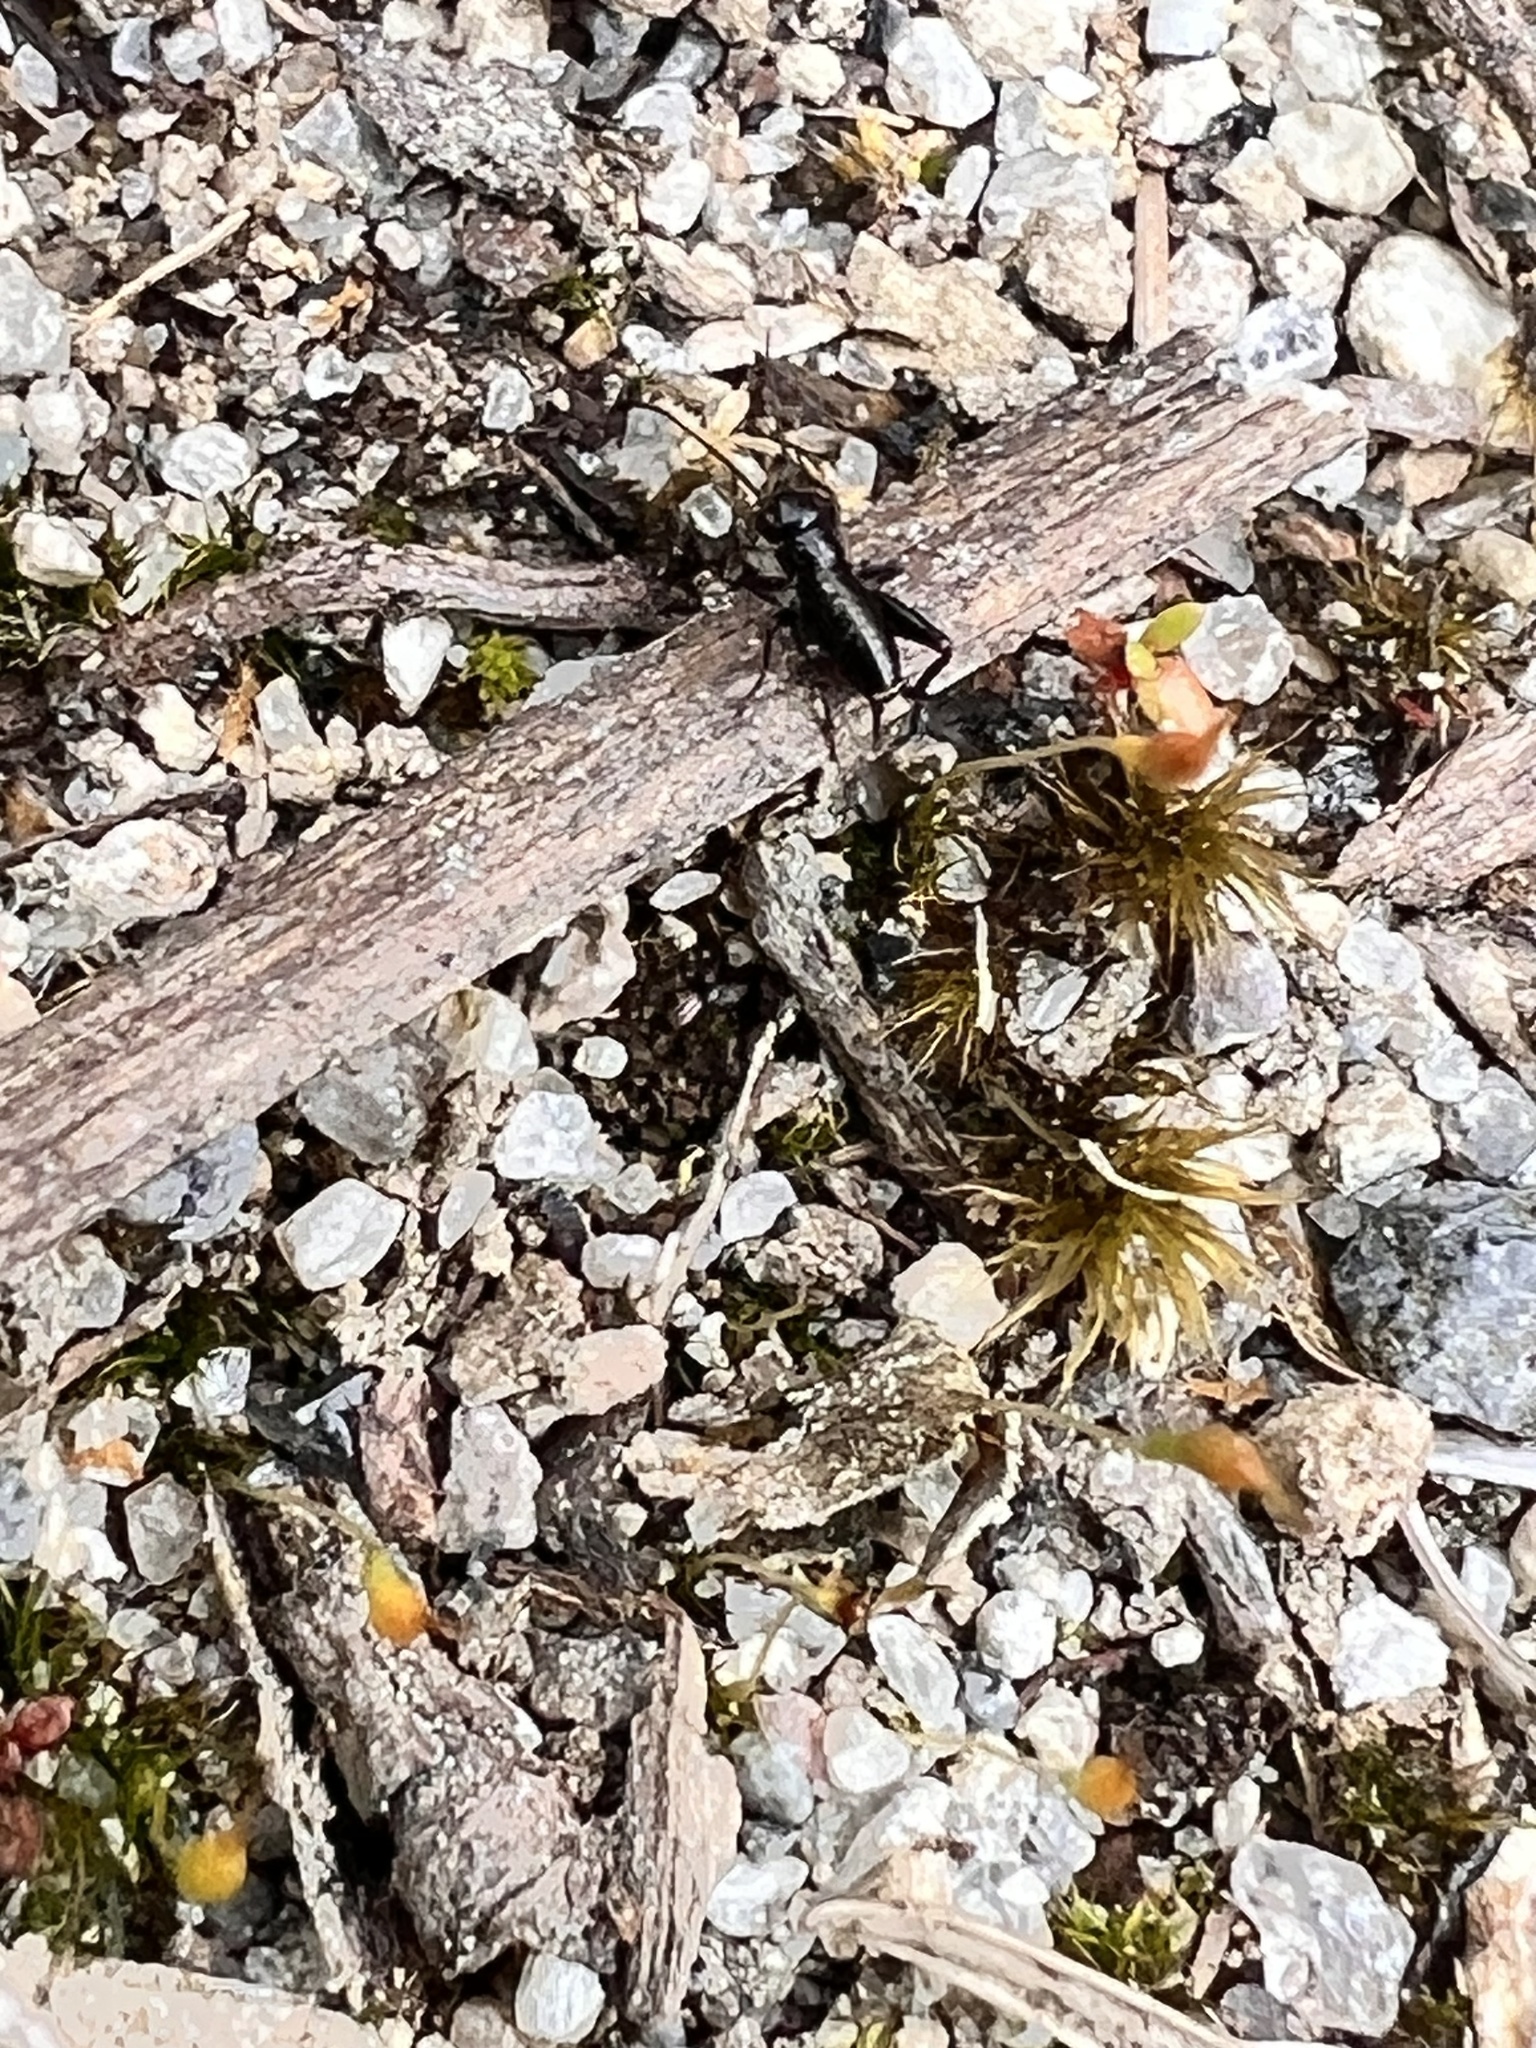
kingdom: Animalia
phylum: Arthropoda
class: Insecta
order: Orthoptera
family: Gryllidae
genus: Teleogryllus
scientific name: Teleogryllus commodus
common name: Black field cricket
